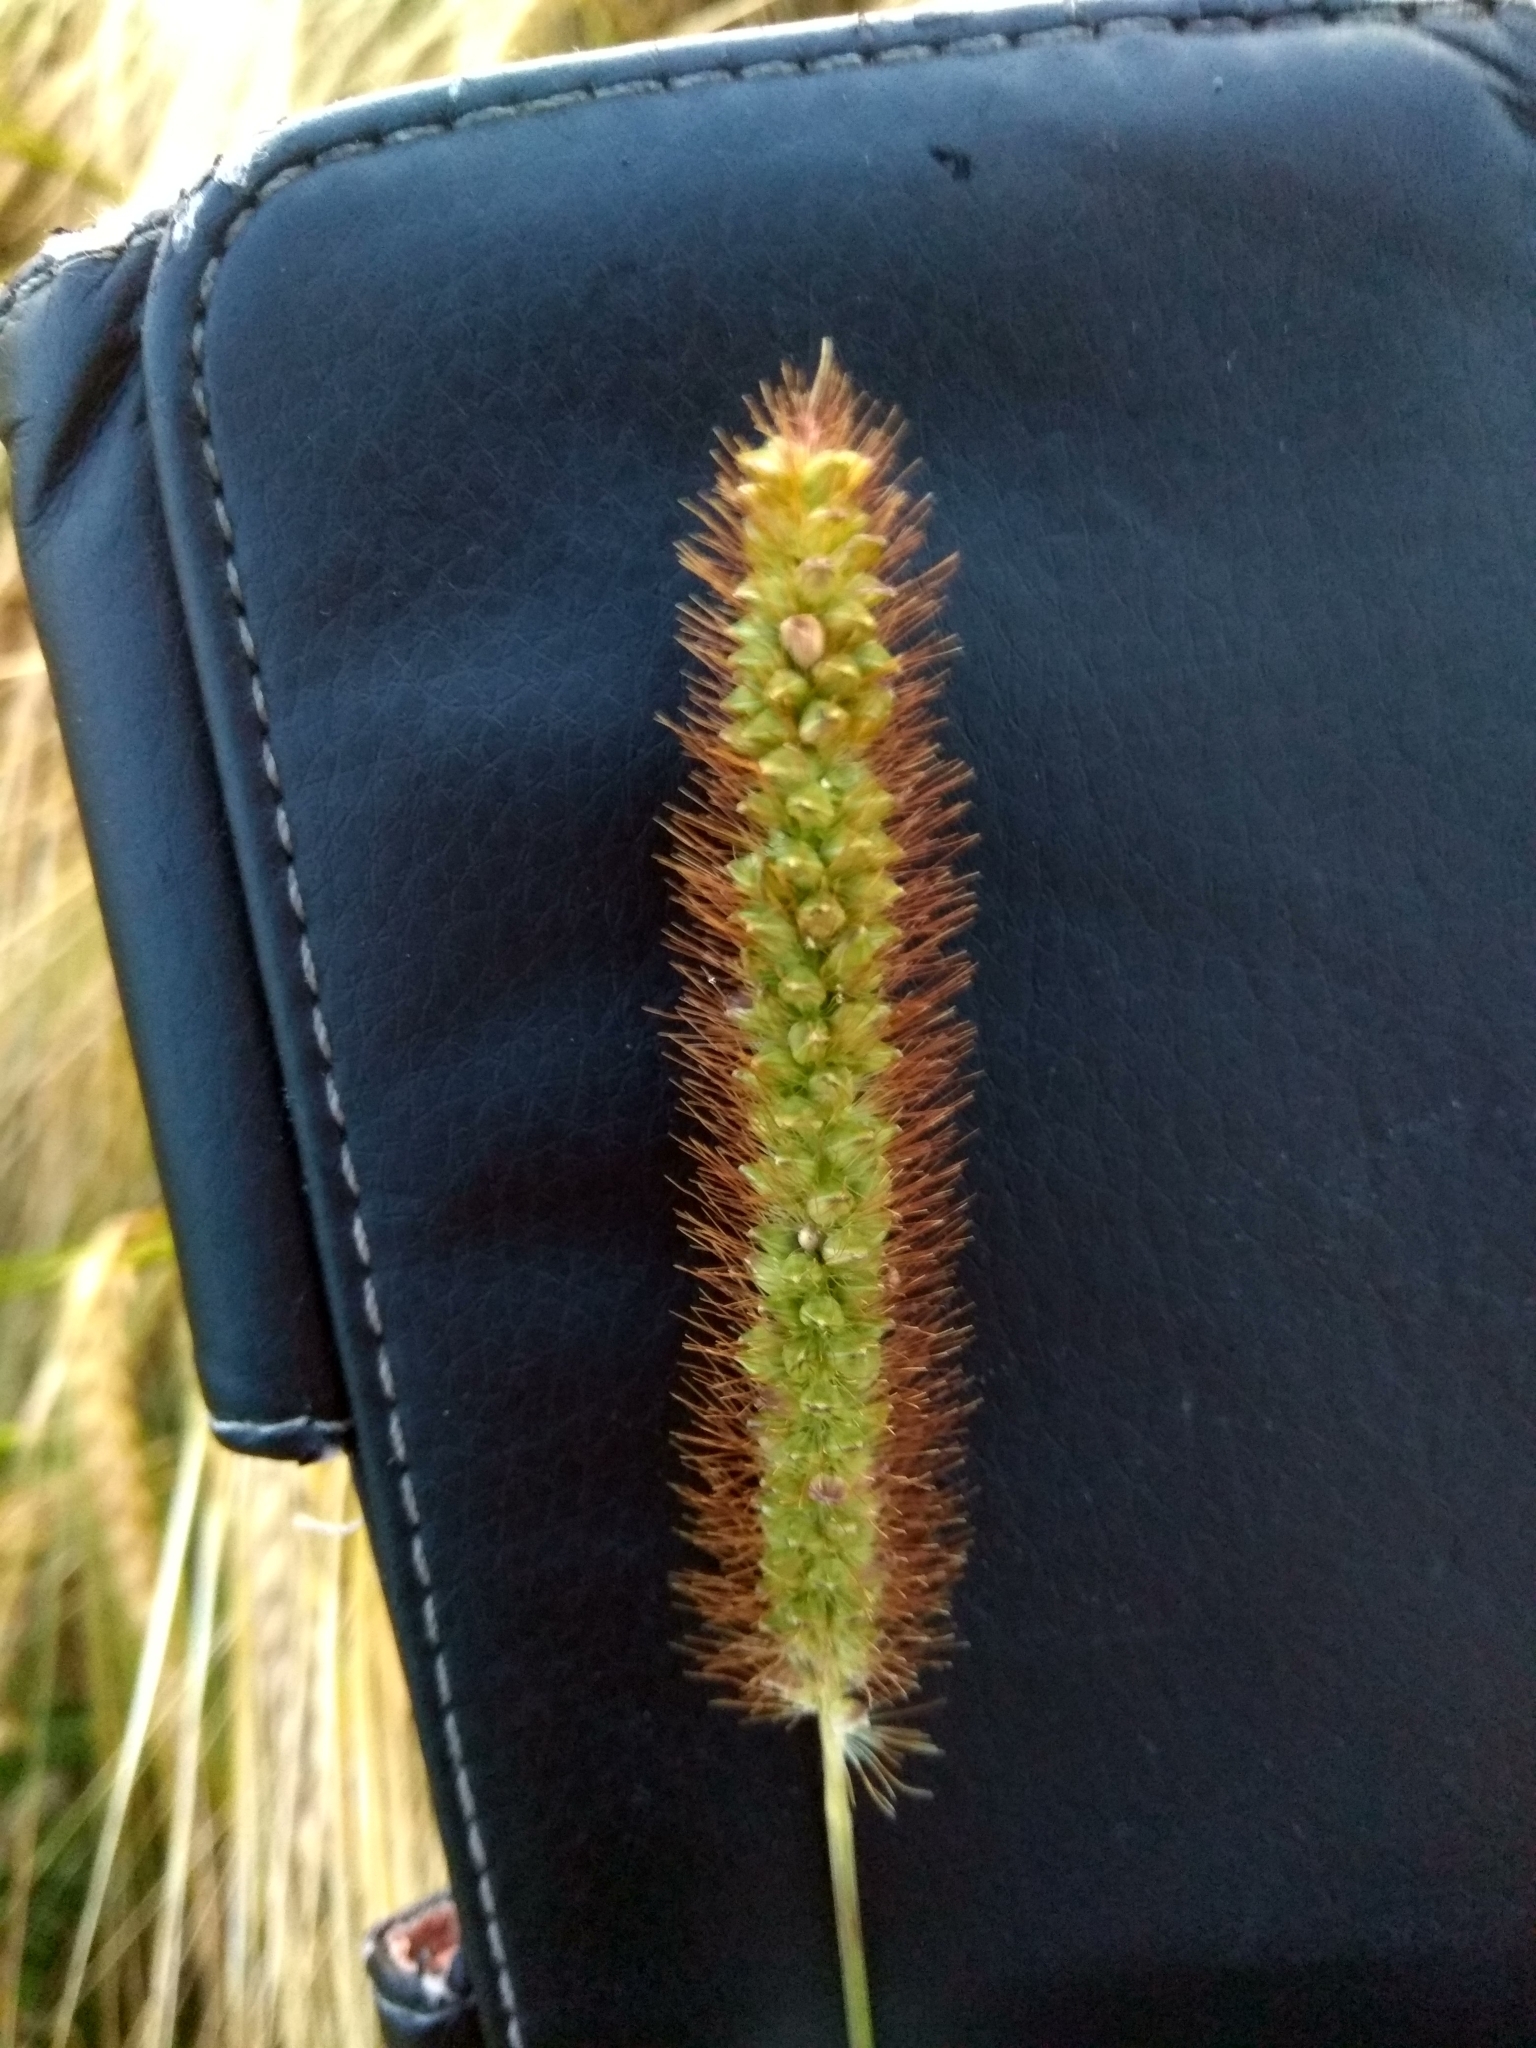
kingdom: Plantae
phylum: Tracheophyta
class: Liliopsida
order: Poales
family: Poaceae
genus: Setaria
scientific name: Setaria pumila
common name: Yellow bristle-grass
